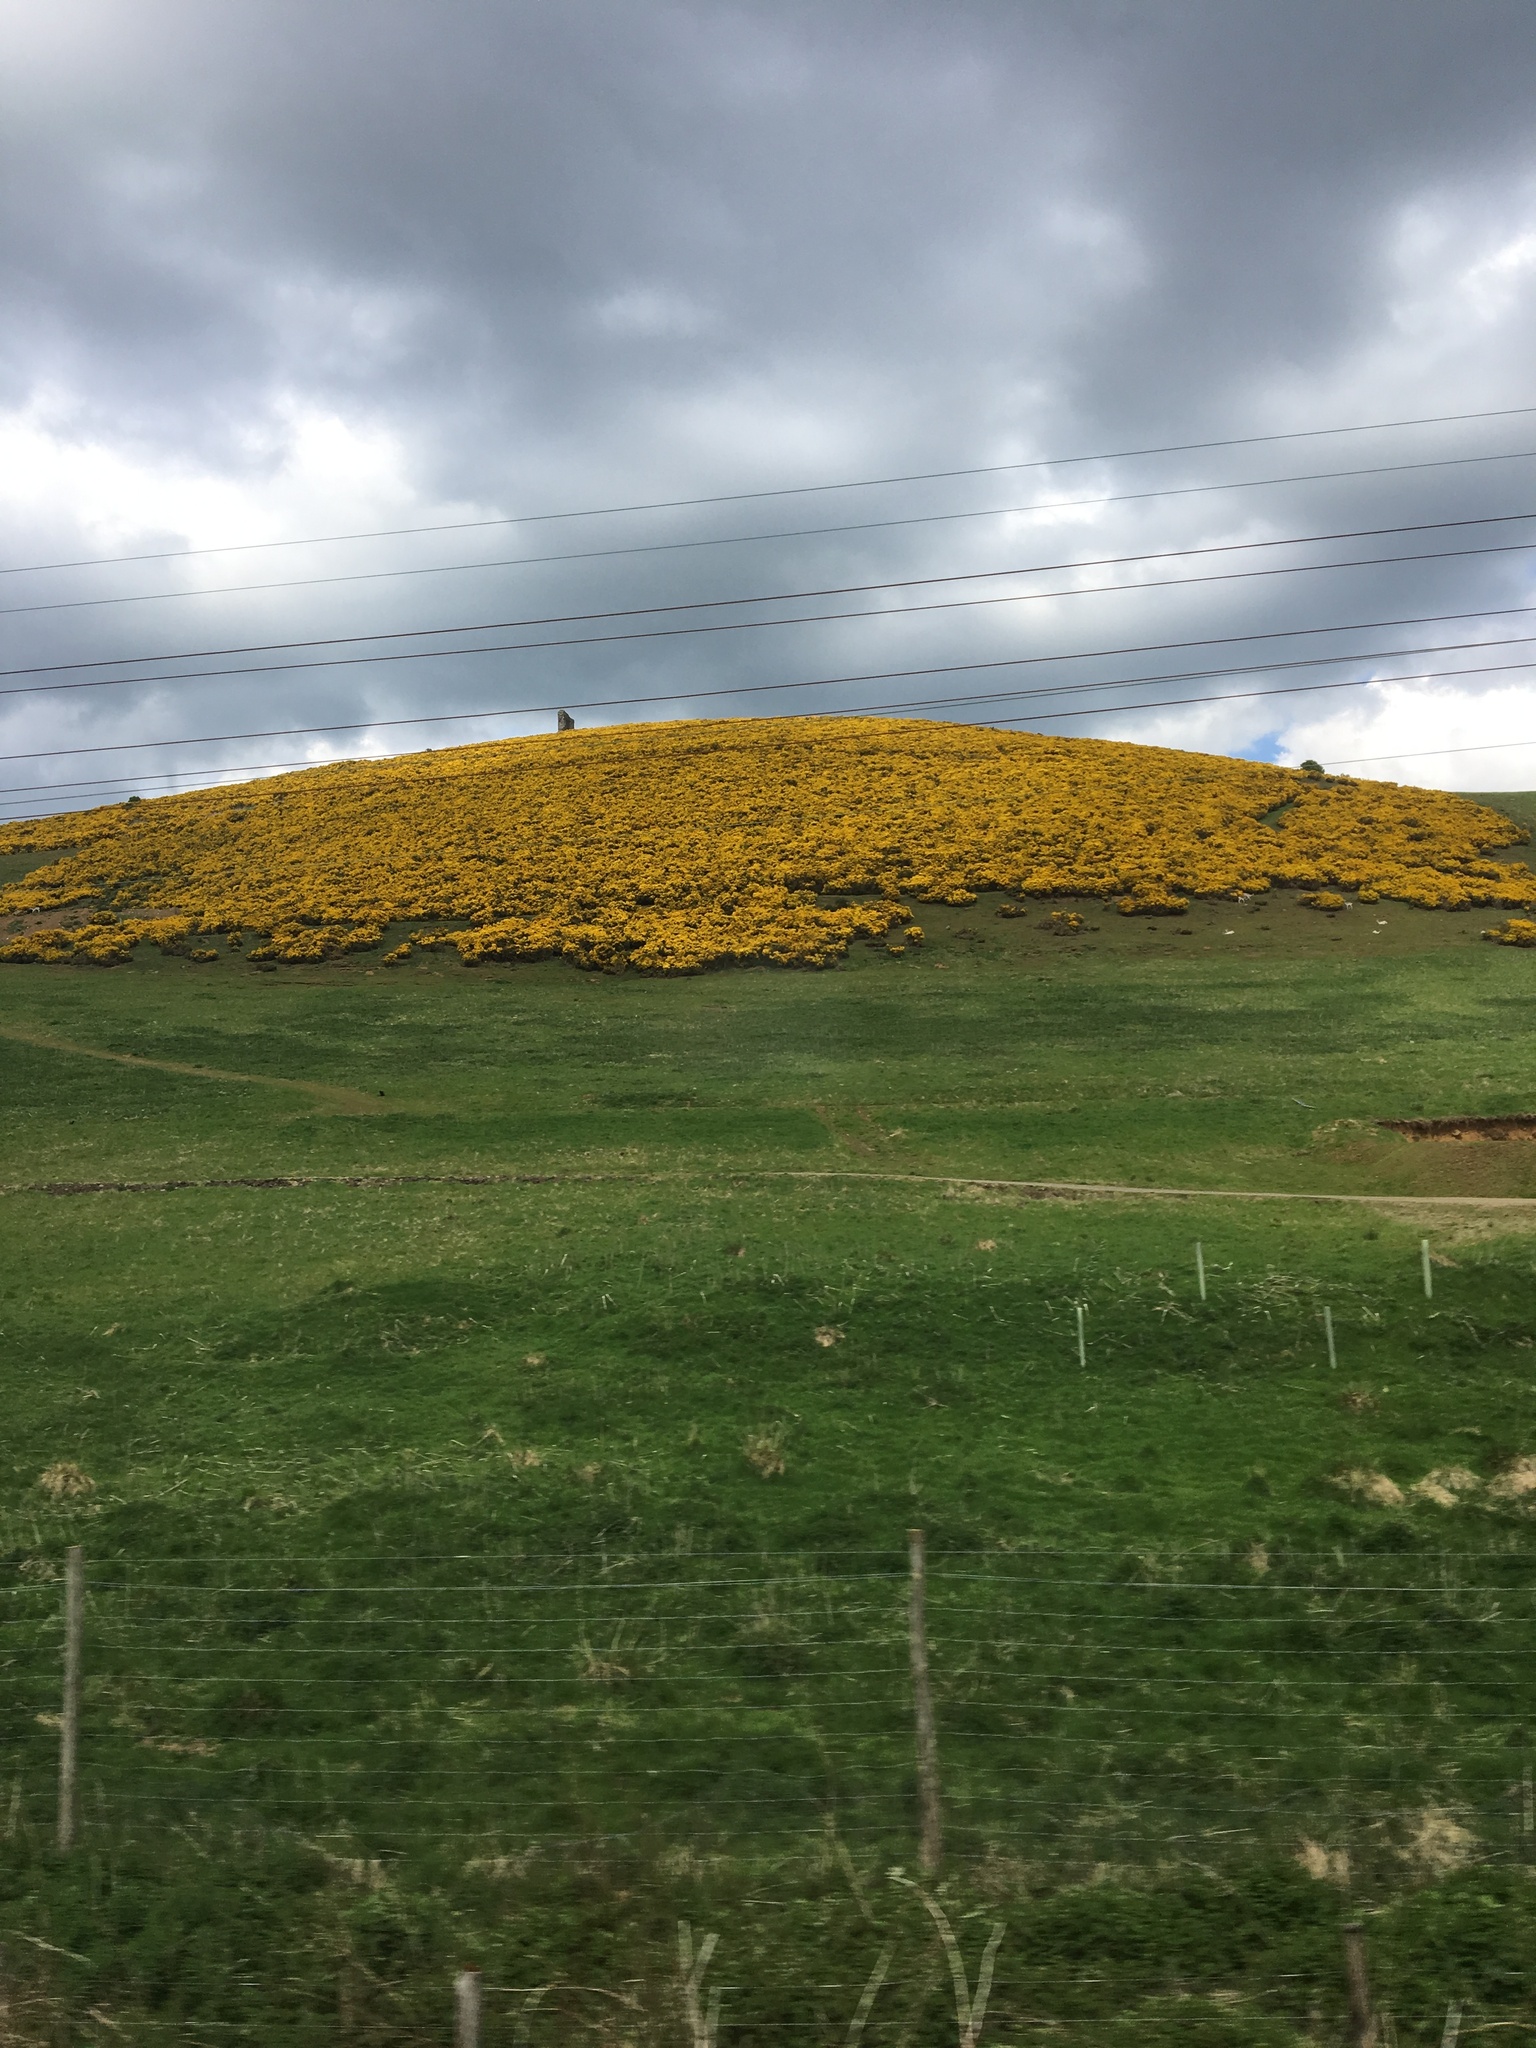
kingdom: Plantae
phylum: Tracheophyta
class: Magnoliopsida
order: Fabales
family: Fabaceae
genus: Ulex
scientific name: Ulex europaeus
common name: Common gorse
